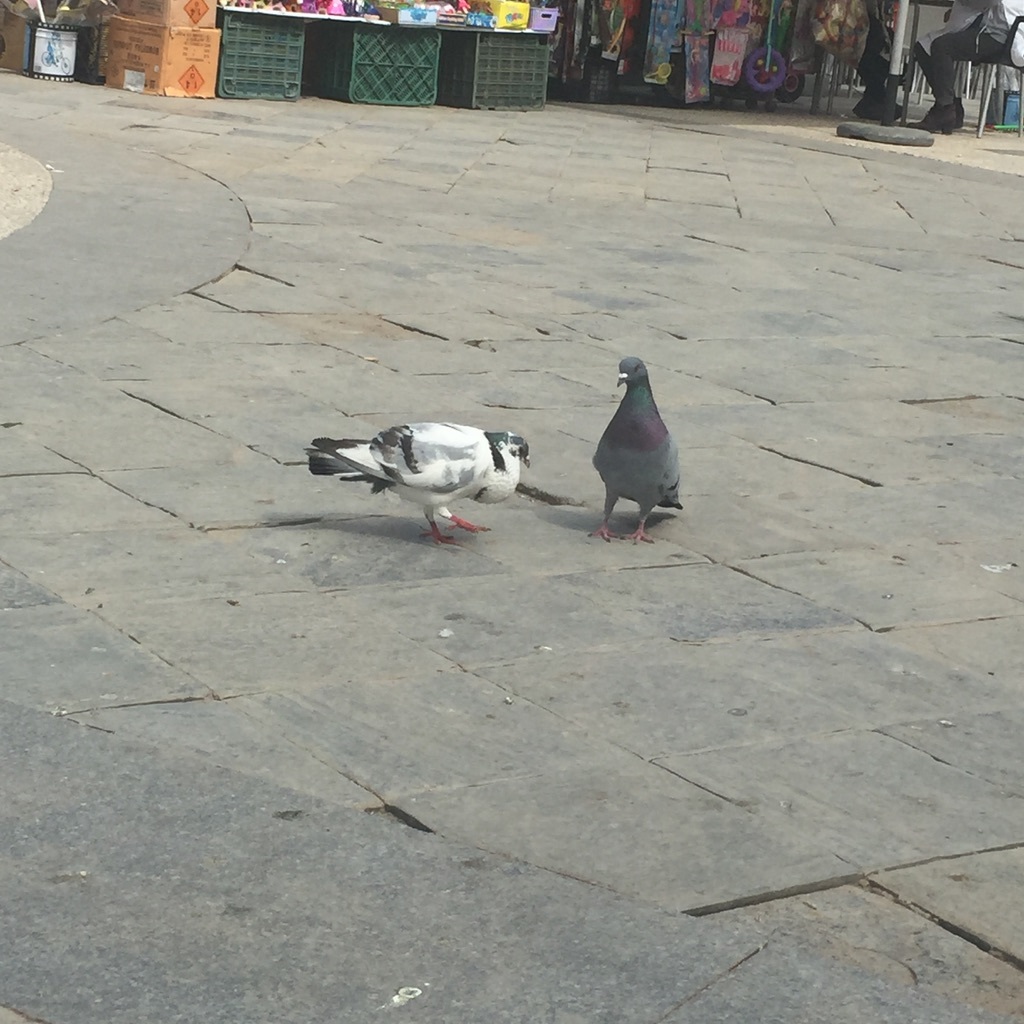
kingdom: Animalia
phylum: Chordata
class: Aves
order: Columbiformes
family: Columbidae
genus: Columba
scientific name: Columba livia
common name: Rock pigeon
